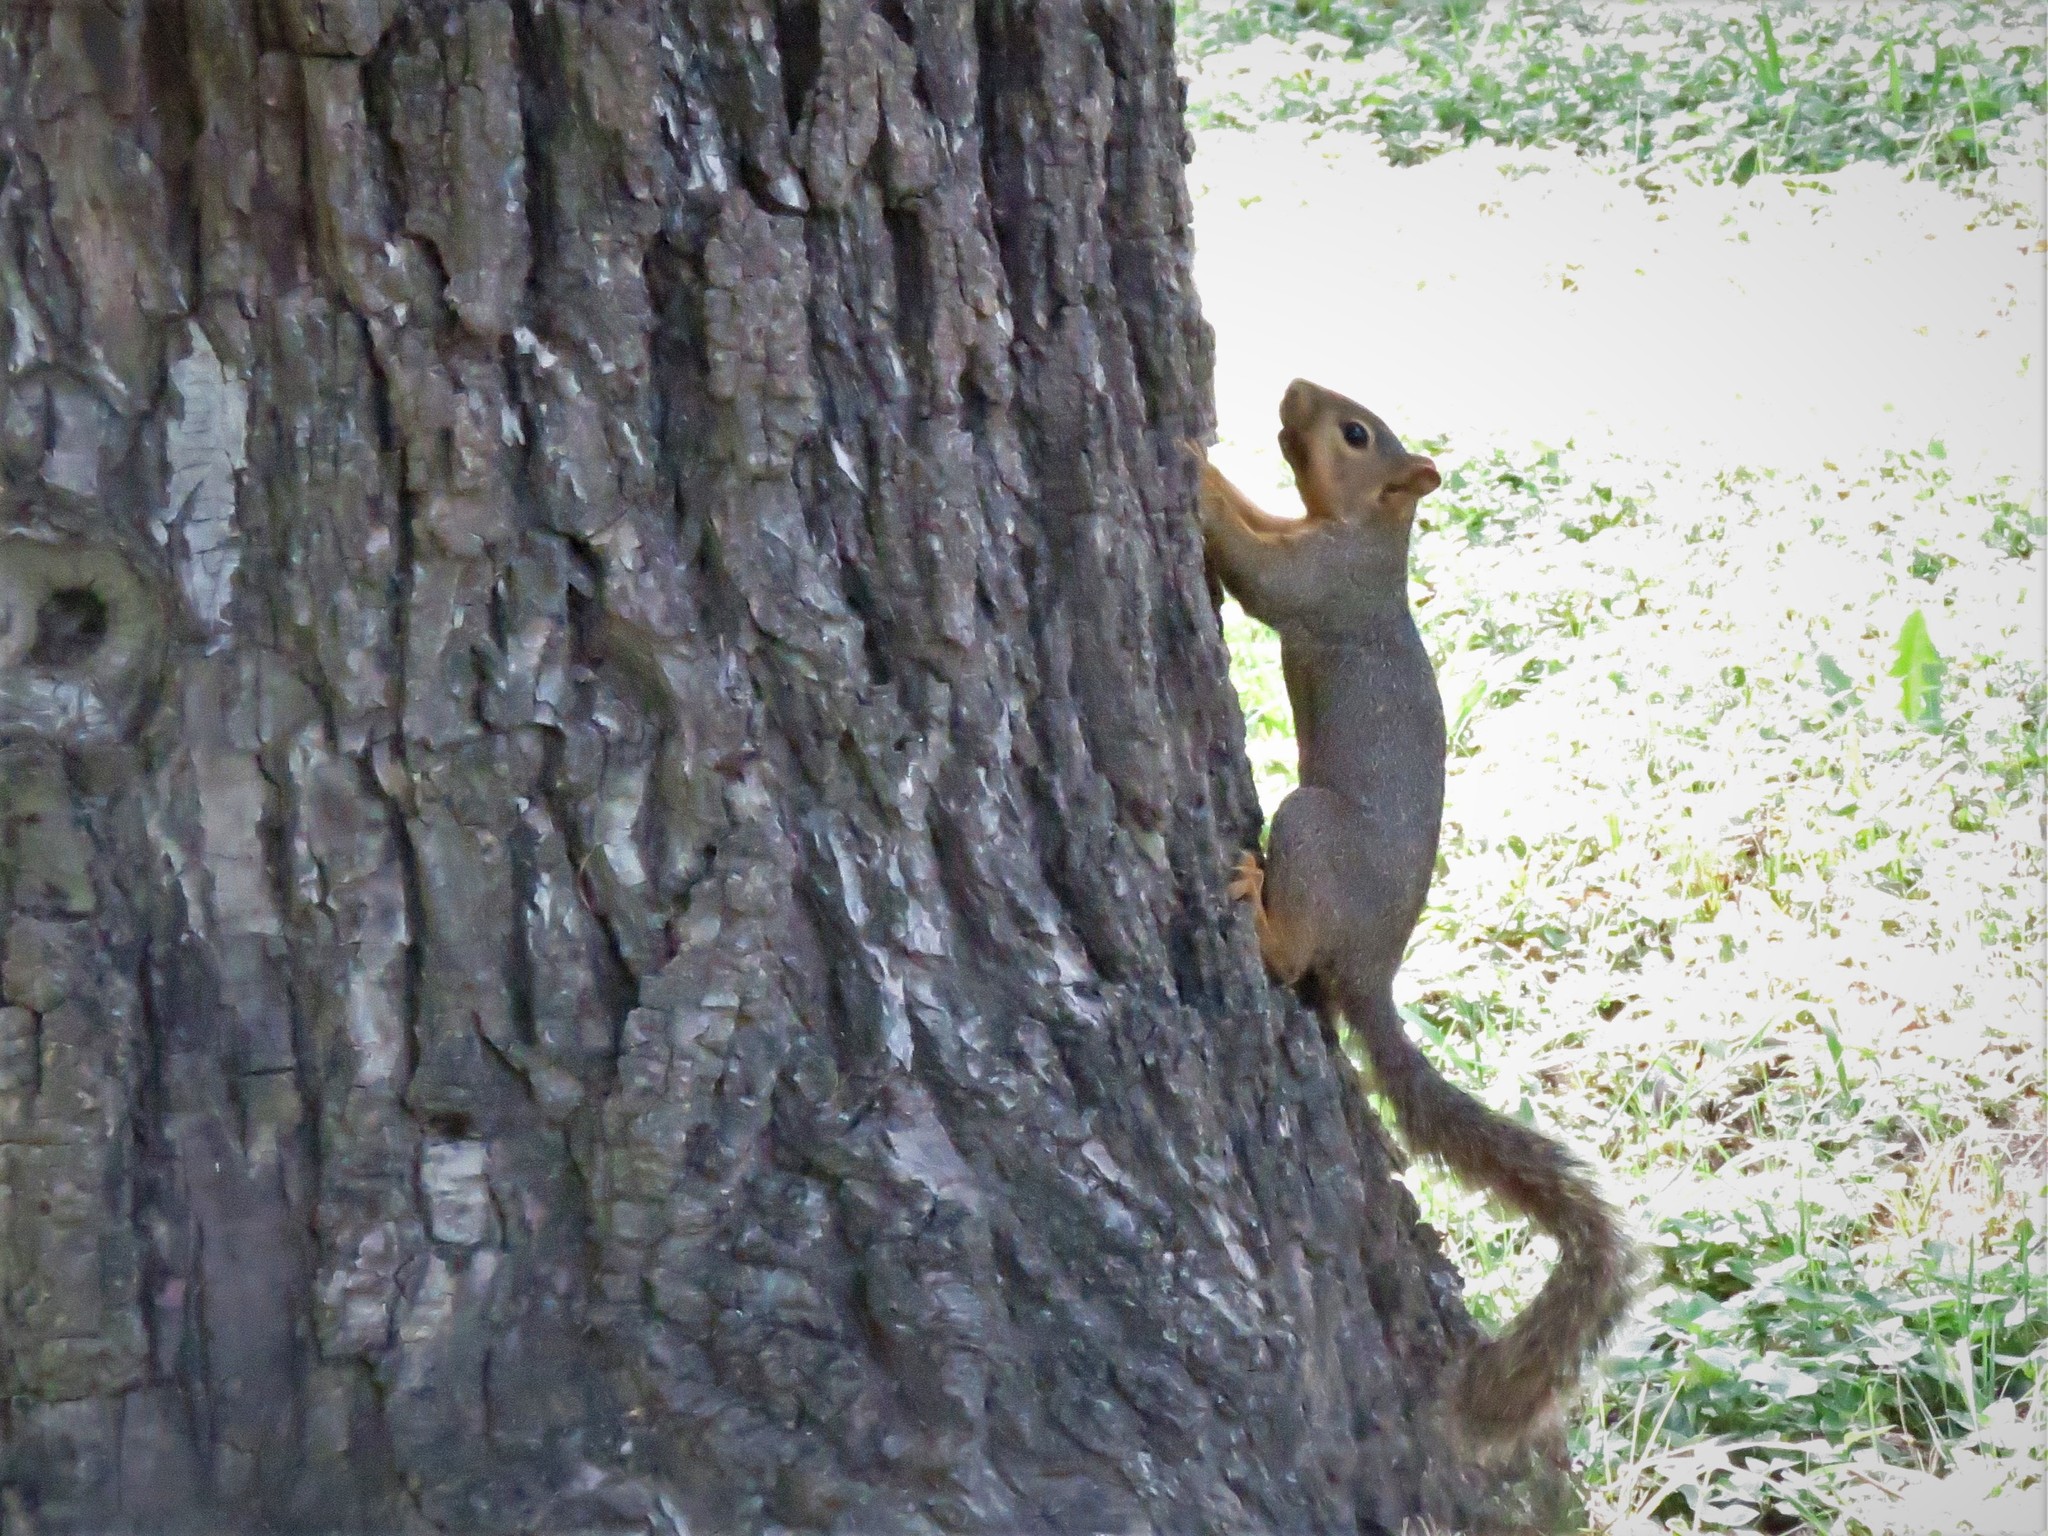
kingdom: Animalia
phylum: Chordata
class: Mammalia
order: Rodentia
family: Sciuridae
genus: Sciurus
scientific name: Sciurus niger
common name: Fox squirrel
